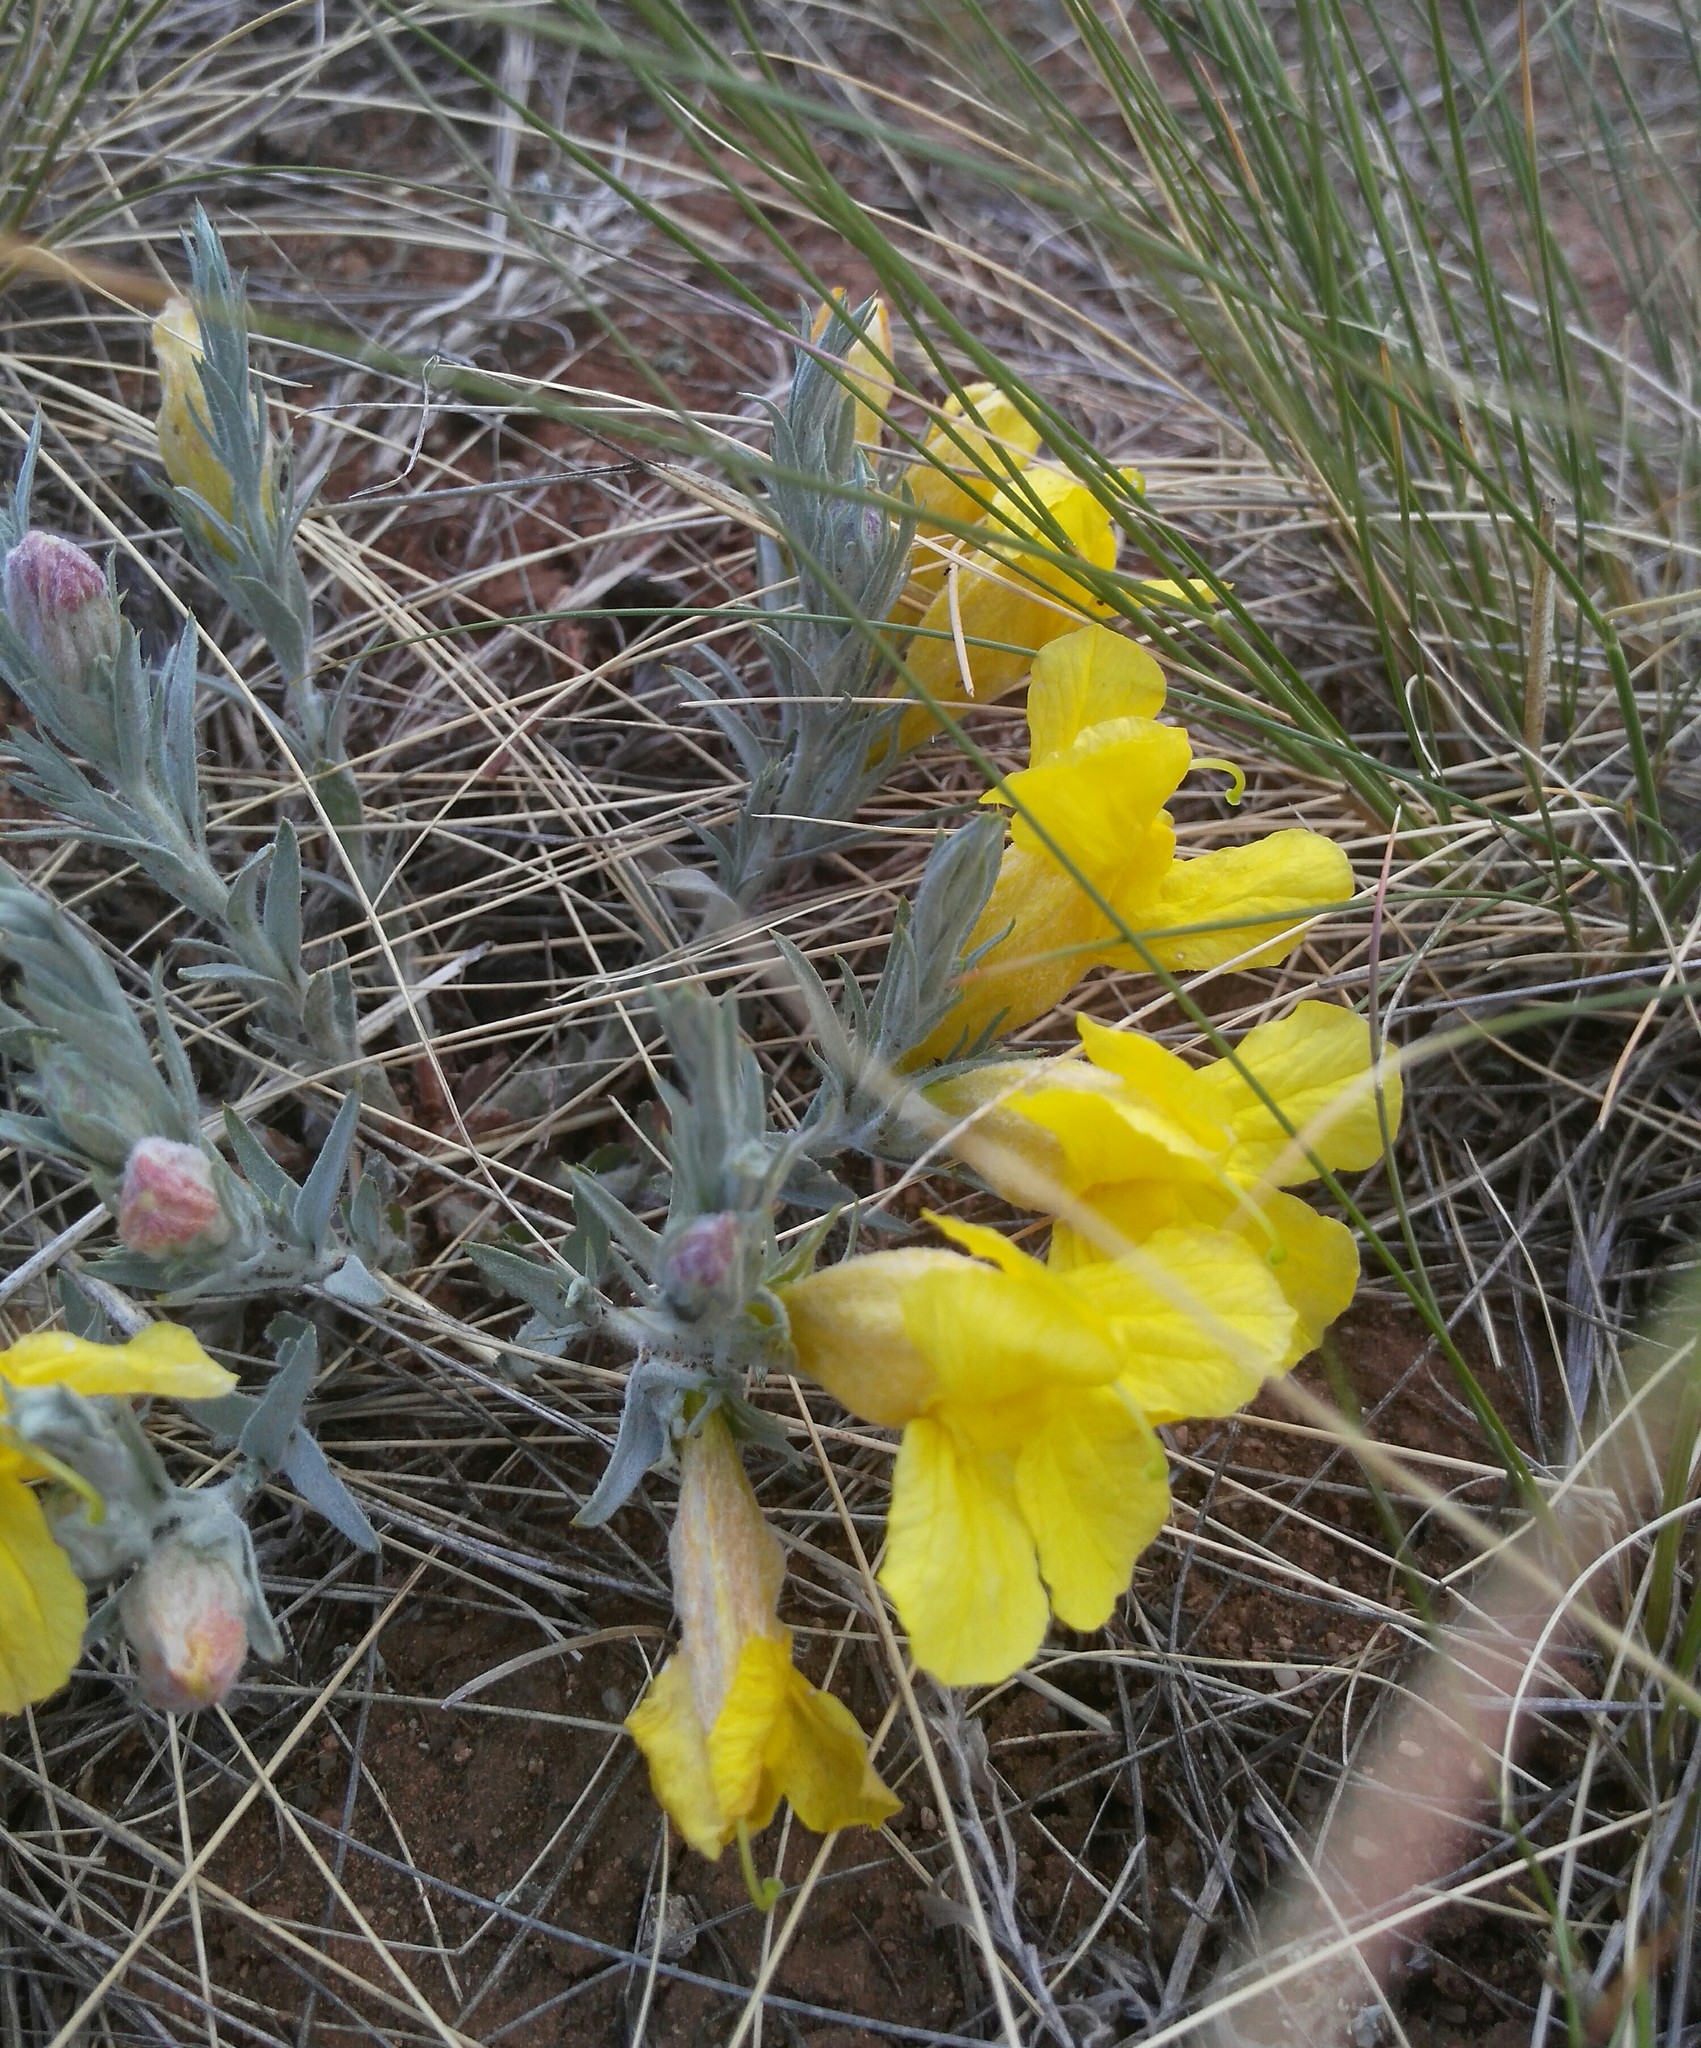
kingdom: Plantae
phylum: Tracheophyta
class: Magnoliopsida
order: Lamiales
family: Orobanchaceae
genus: Cymbaria
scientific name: Cymbaria daurica
